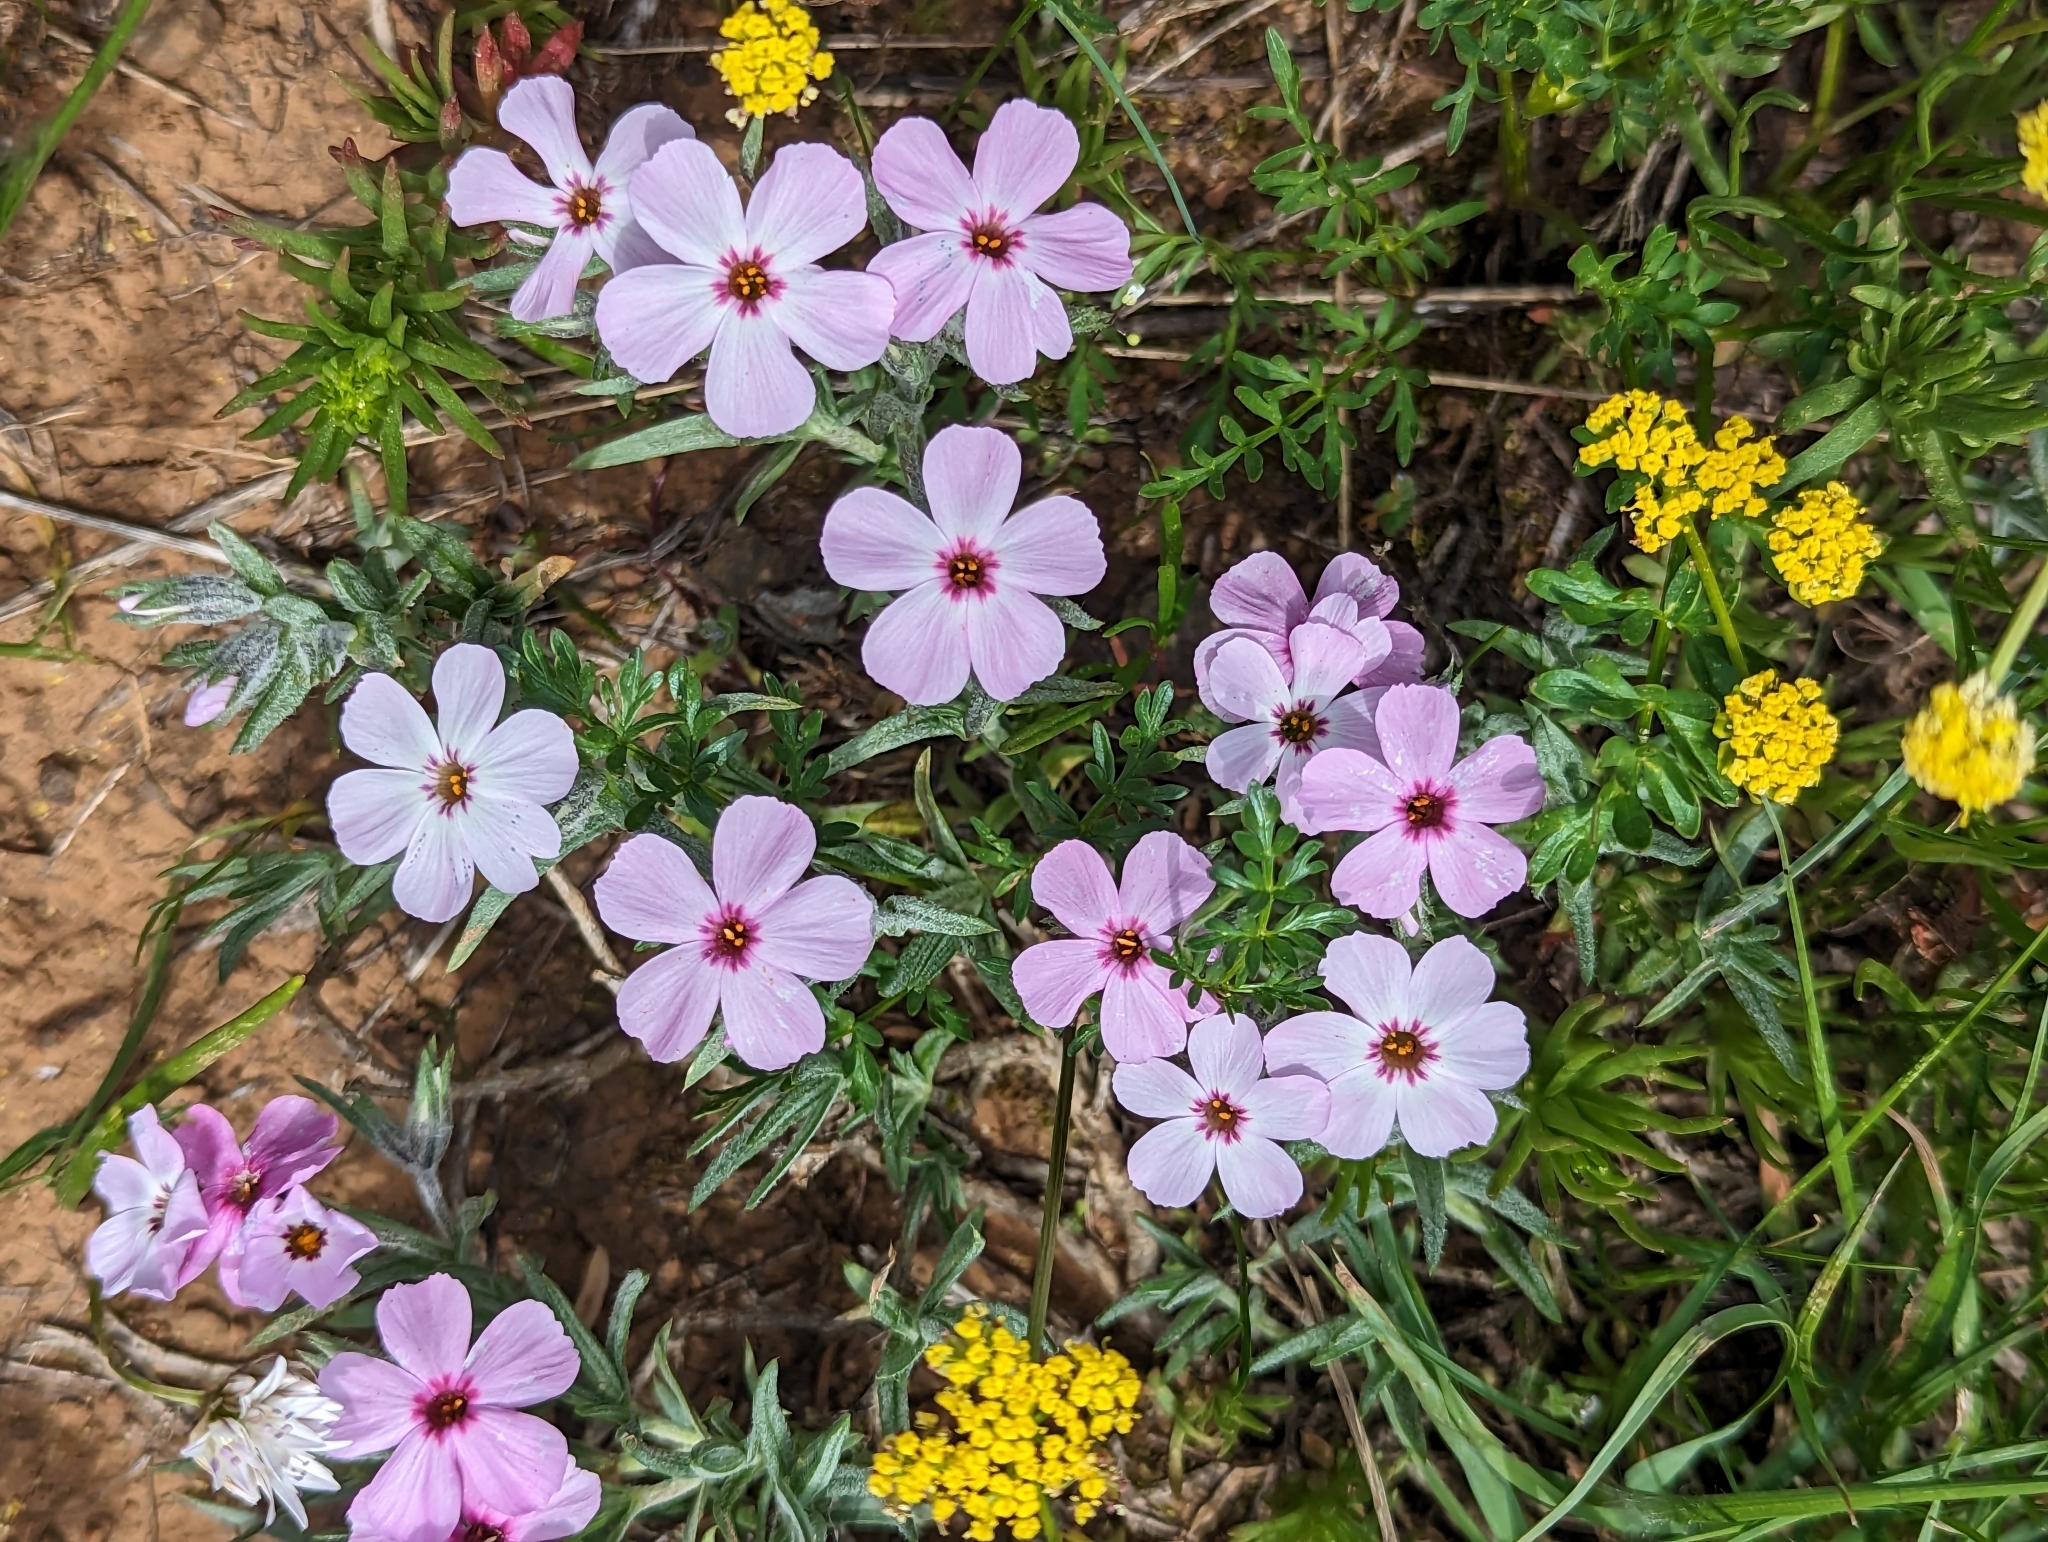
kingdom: Plantae
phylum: Tracheophyta
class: Magnoliopsida
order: Ericales
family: Polemoniaceae
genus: Phlox
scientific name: Phlox viscida
